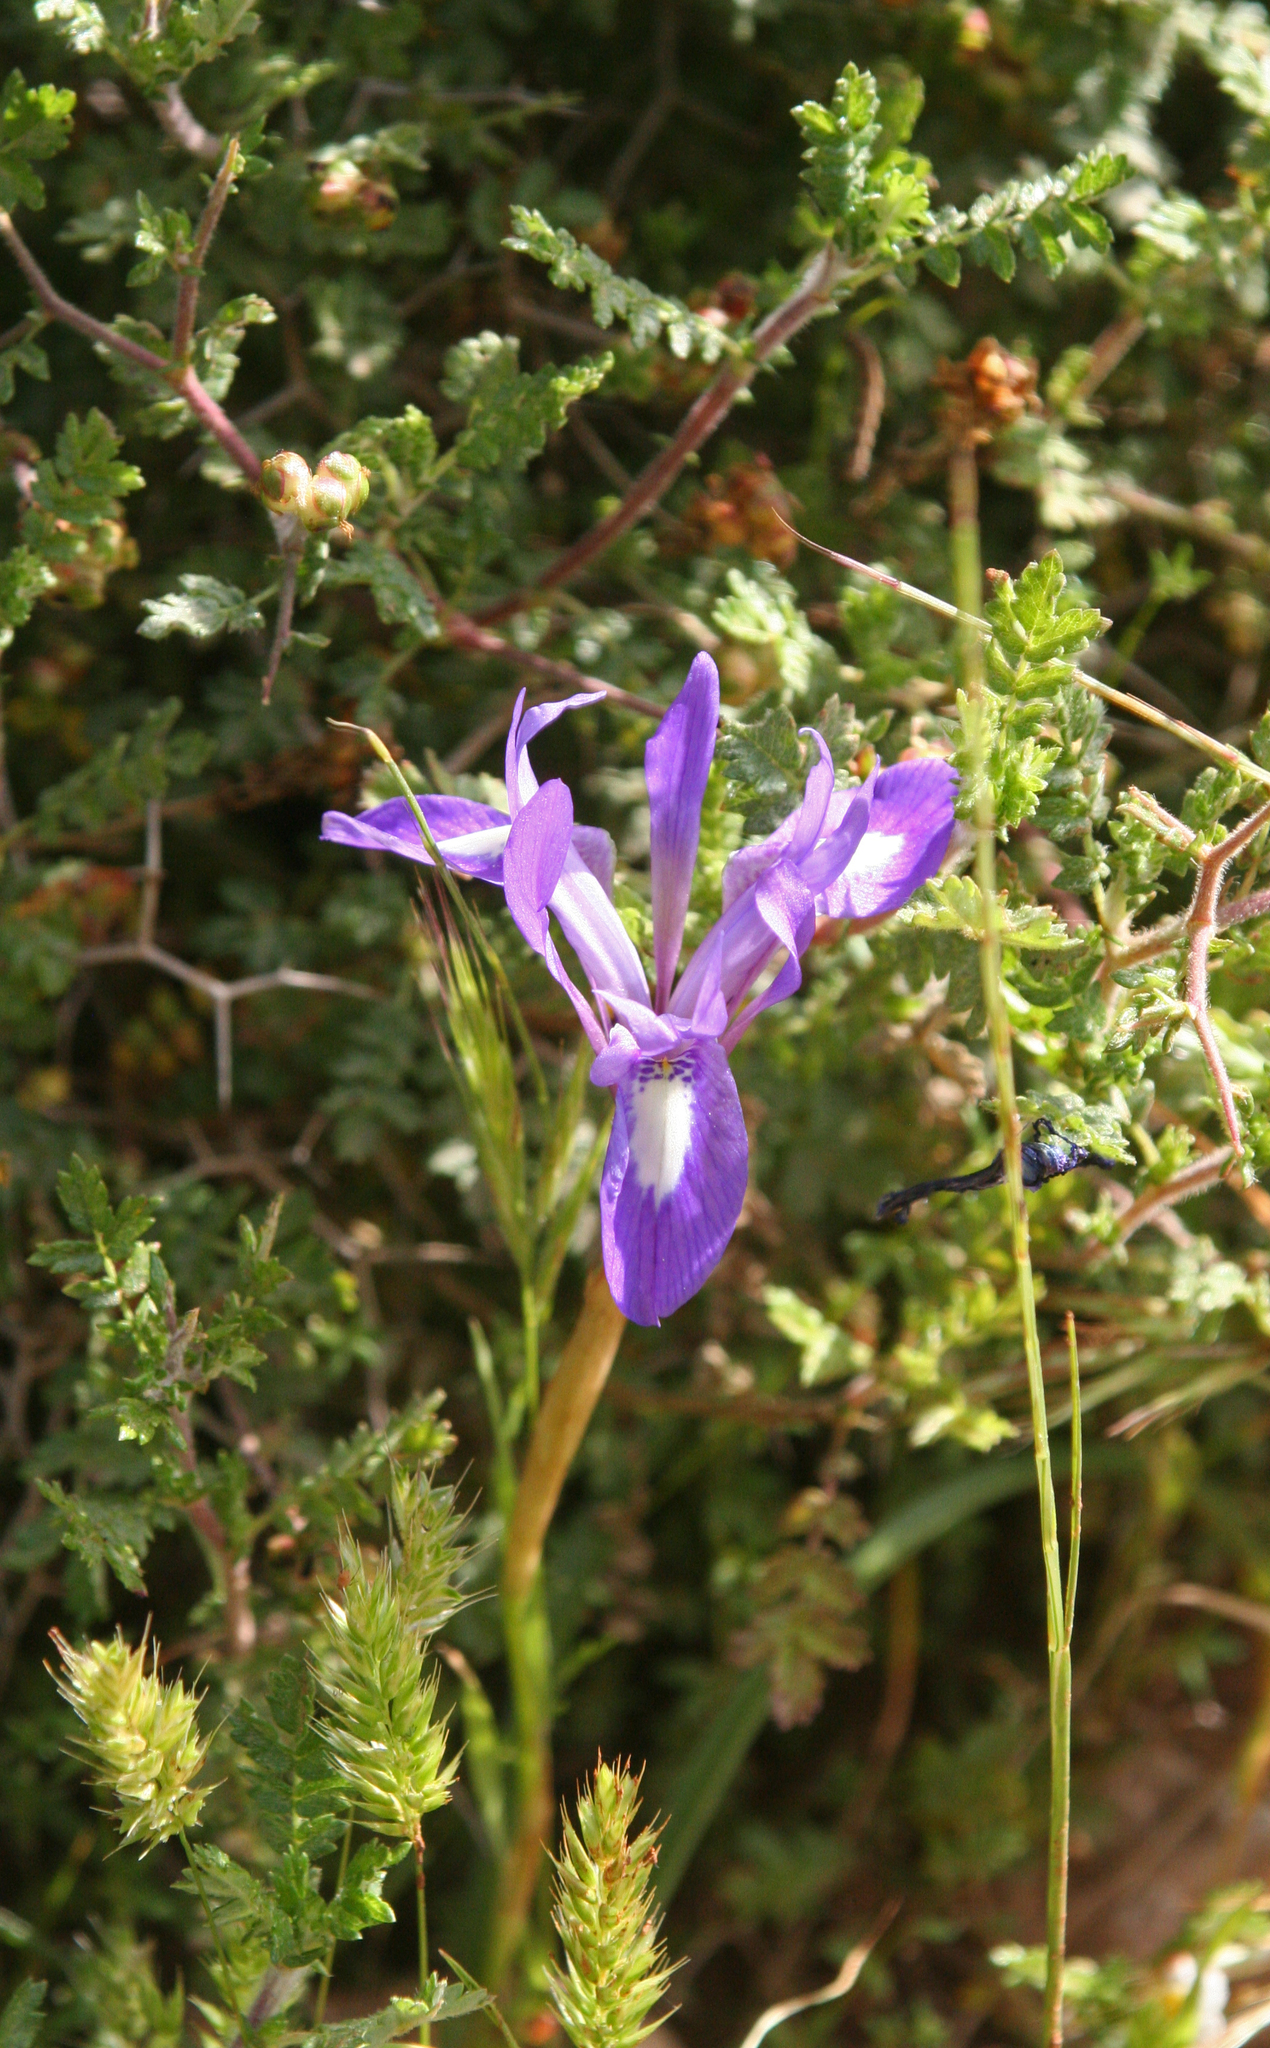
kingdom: Plantae
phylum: Tracheophyta
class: Liliopsida
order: Asparagales
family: Iridaceae
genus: Moraea
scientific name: Moraea sisyrinchium
